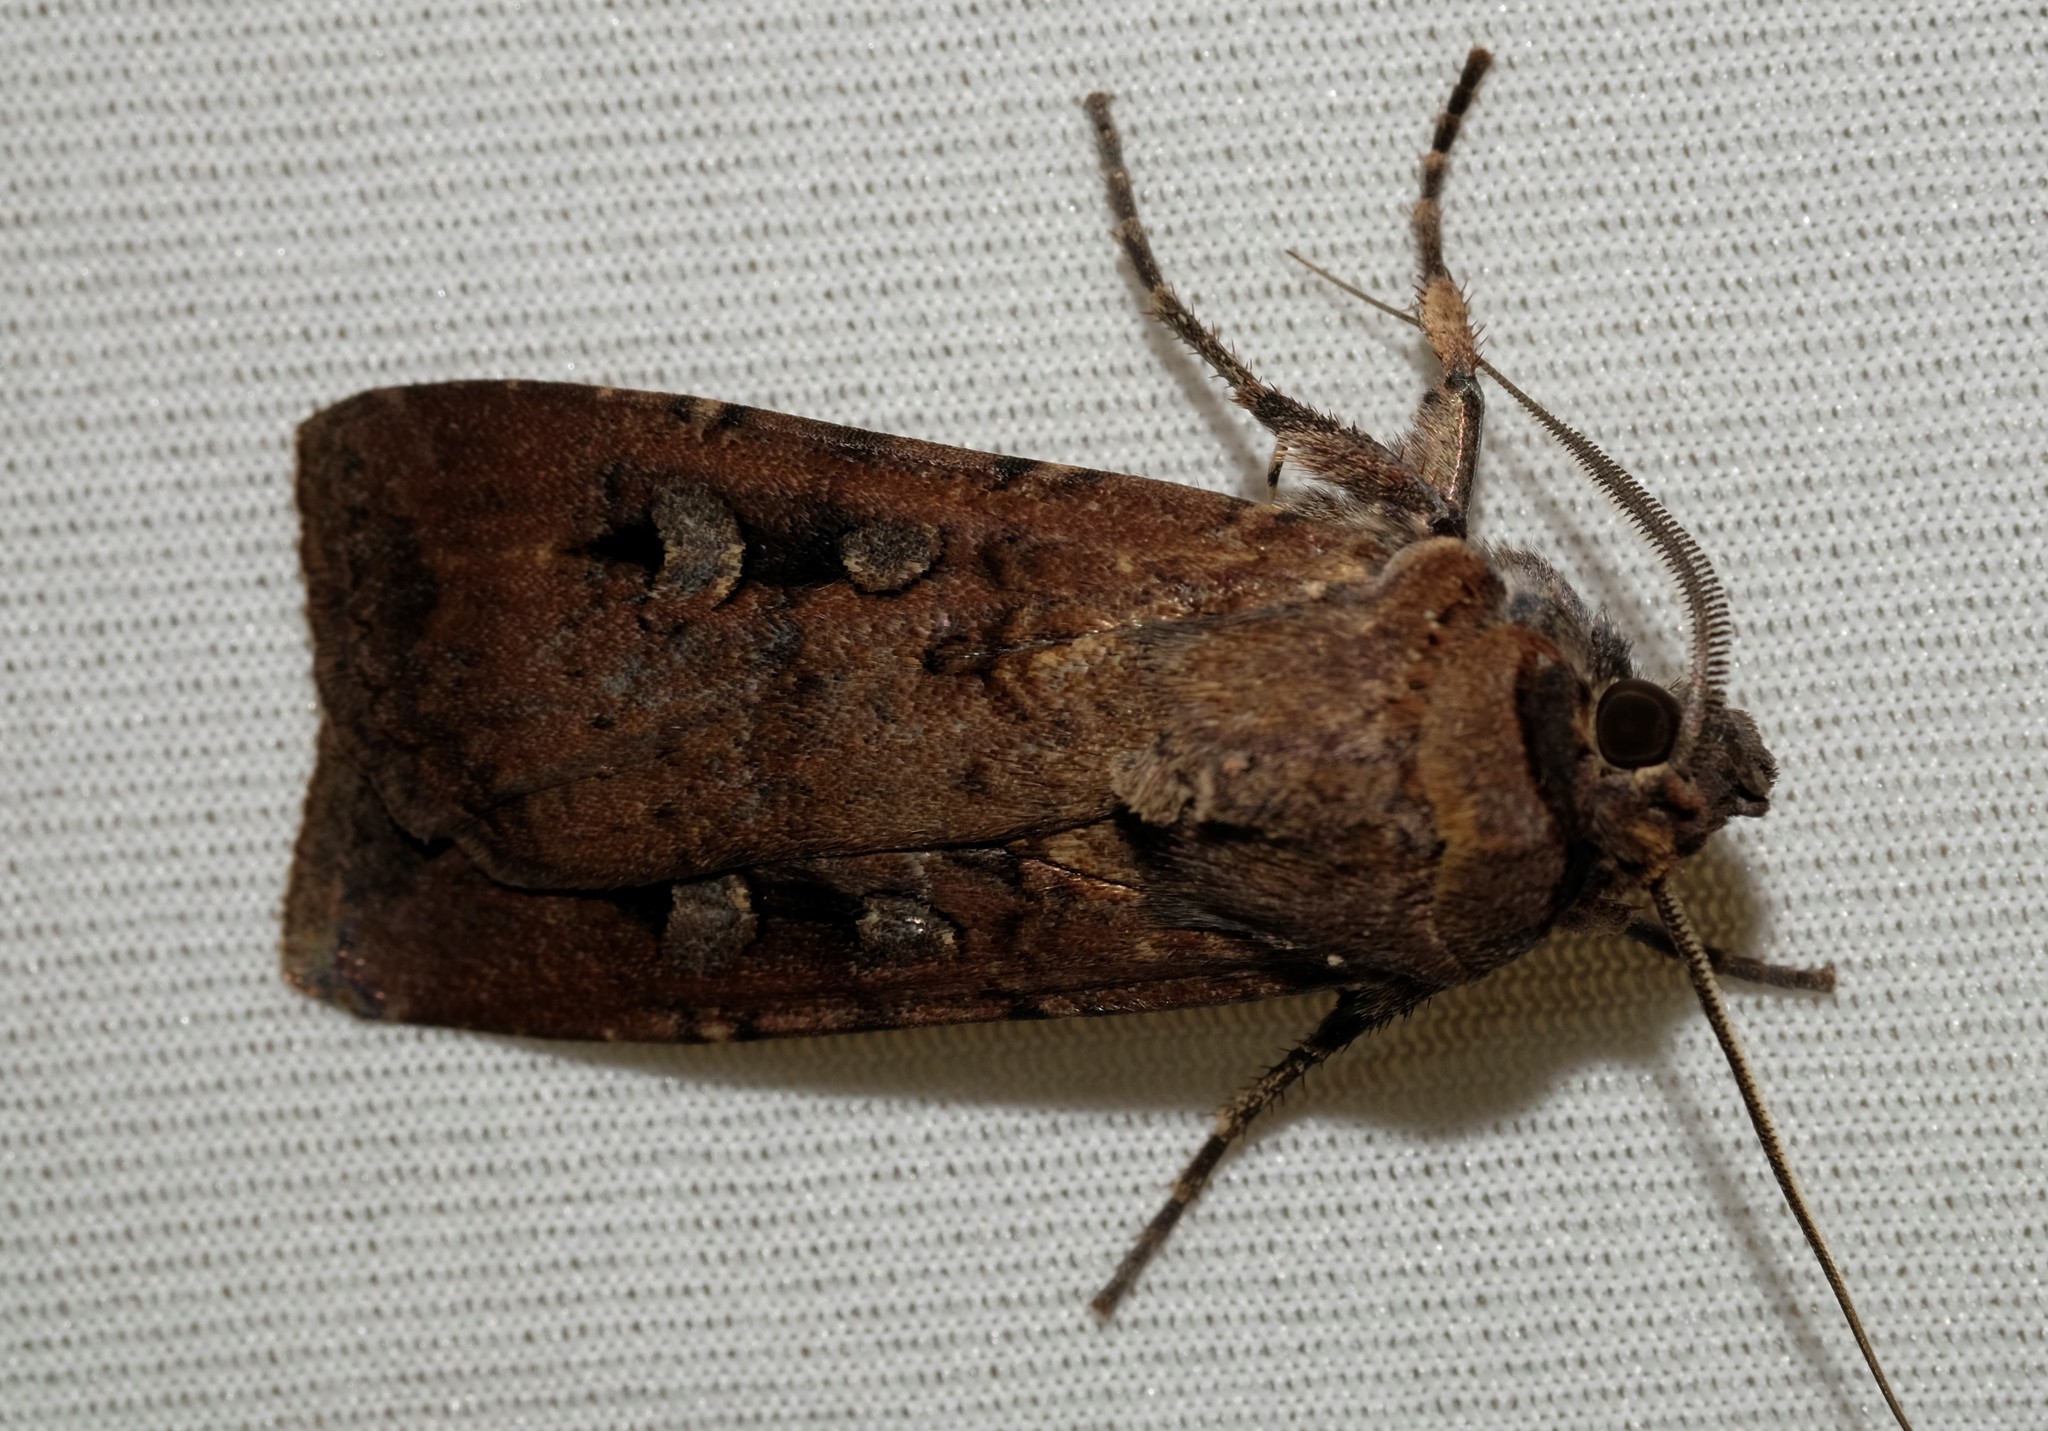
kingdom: Animalia
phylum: Arthropoda
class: Insecta
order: Lepidoptera
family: Noctuidae
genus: Agrotis
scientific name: Agrotis infusa
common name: Bogong moth
